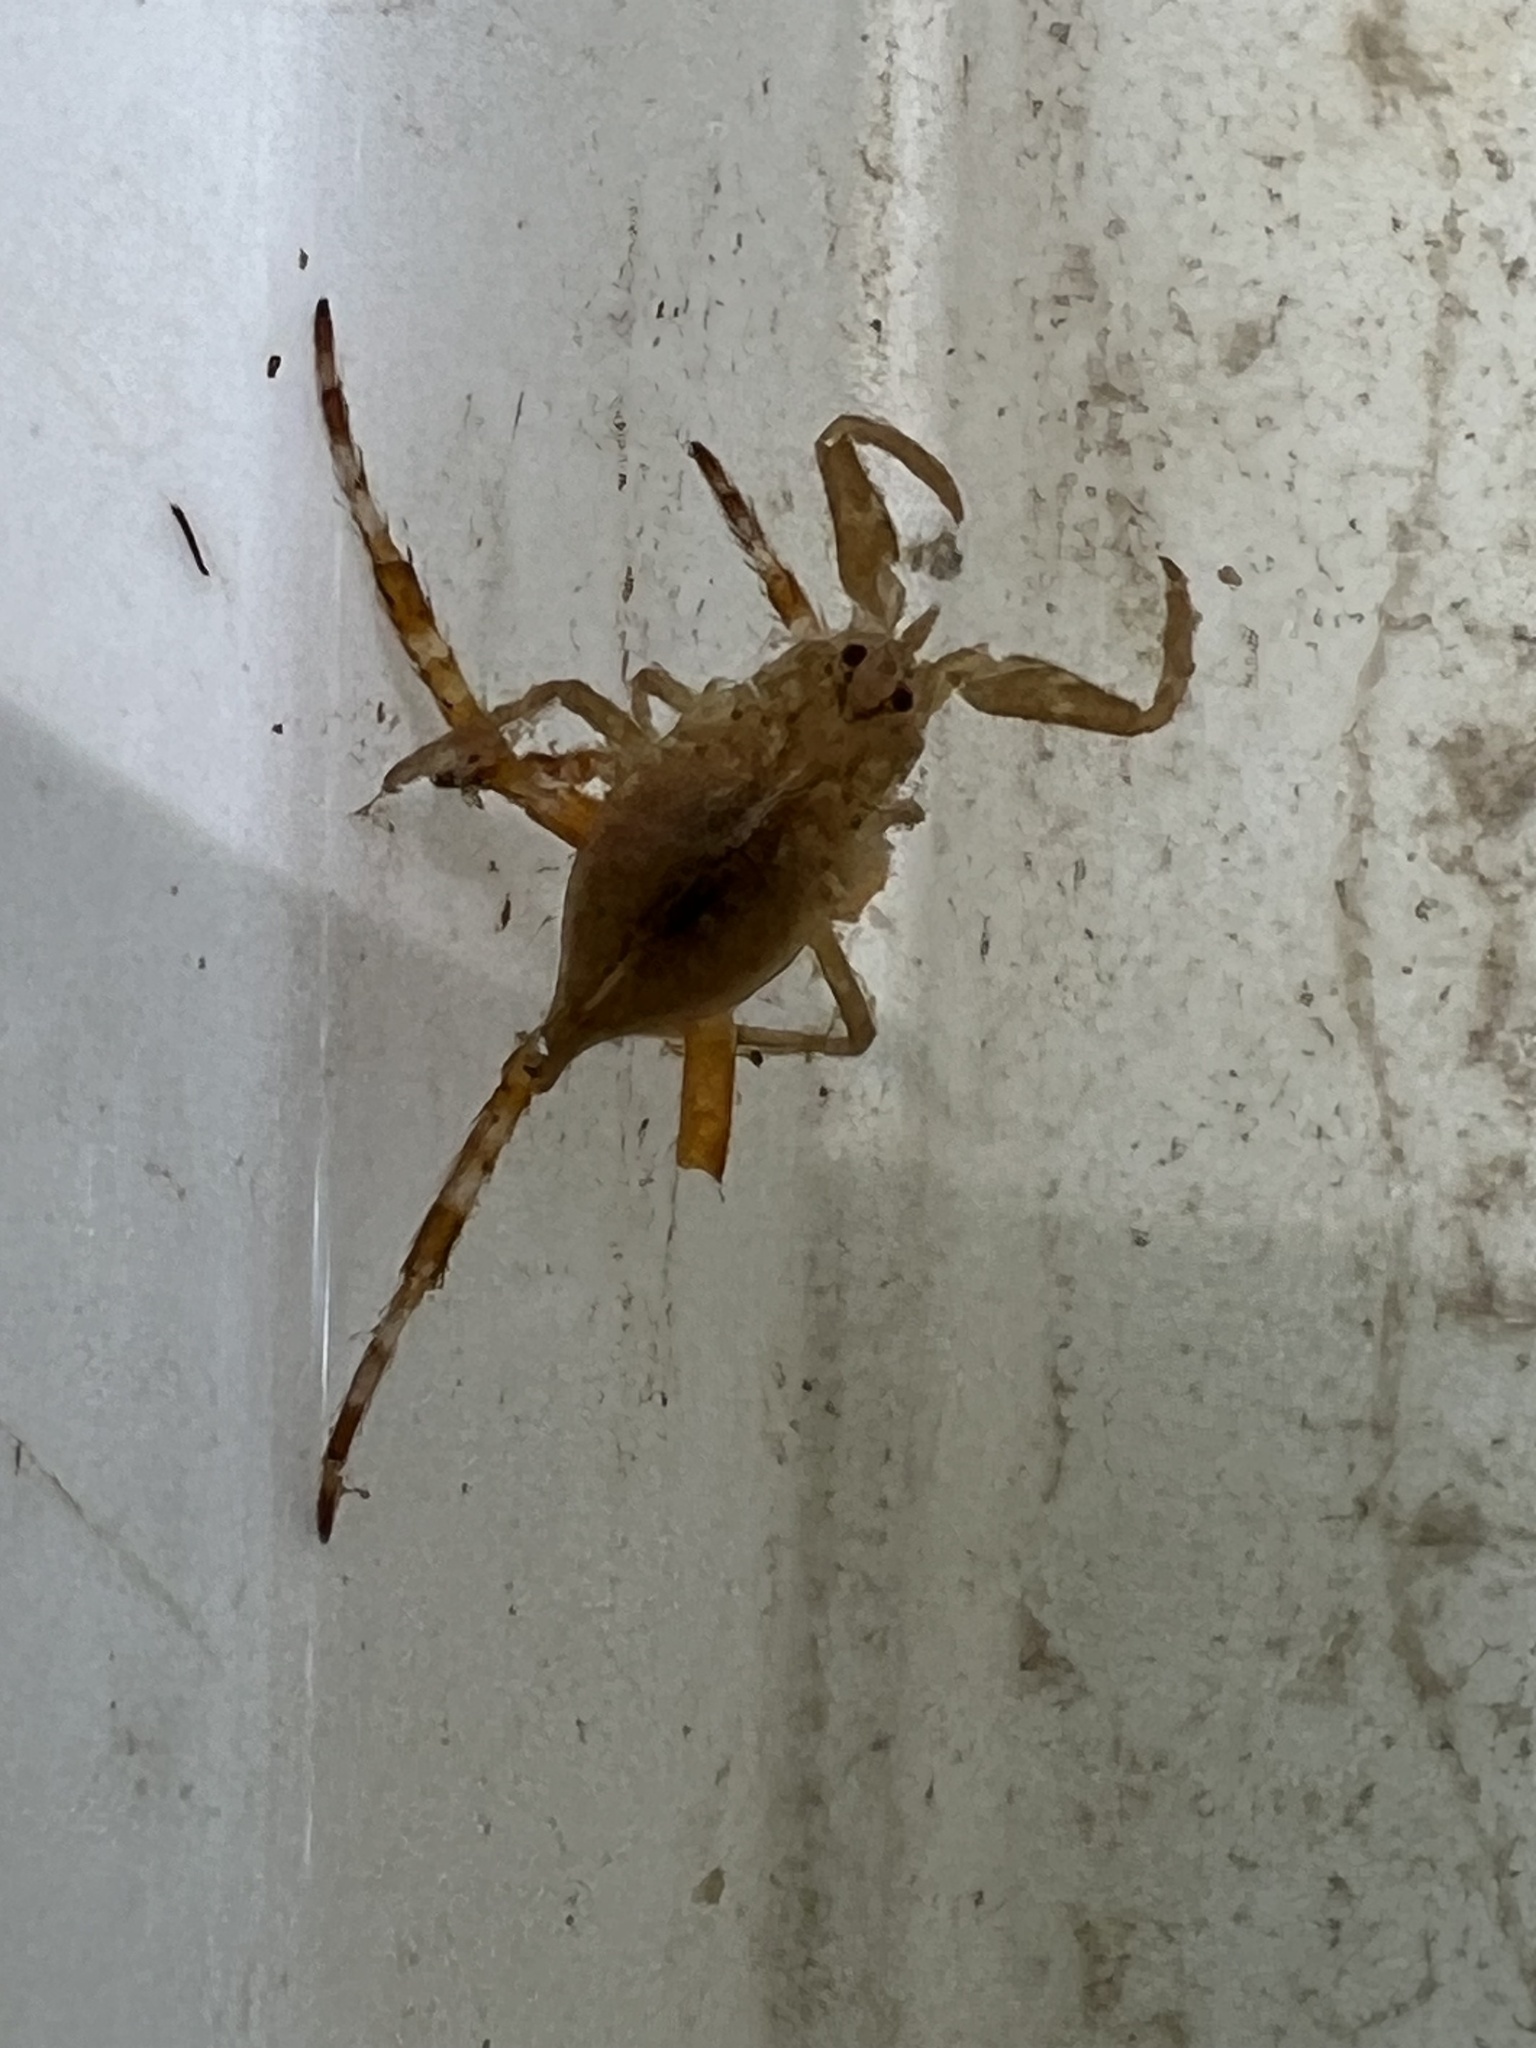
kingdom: Animalia
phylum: Arthropoda
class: Insecta
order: Hemiptera
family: Nepidae
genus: Nepa
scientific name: Nepa cinerea
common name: Water scorpion
